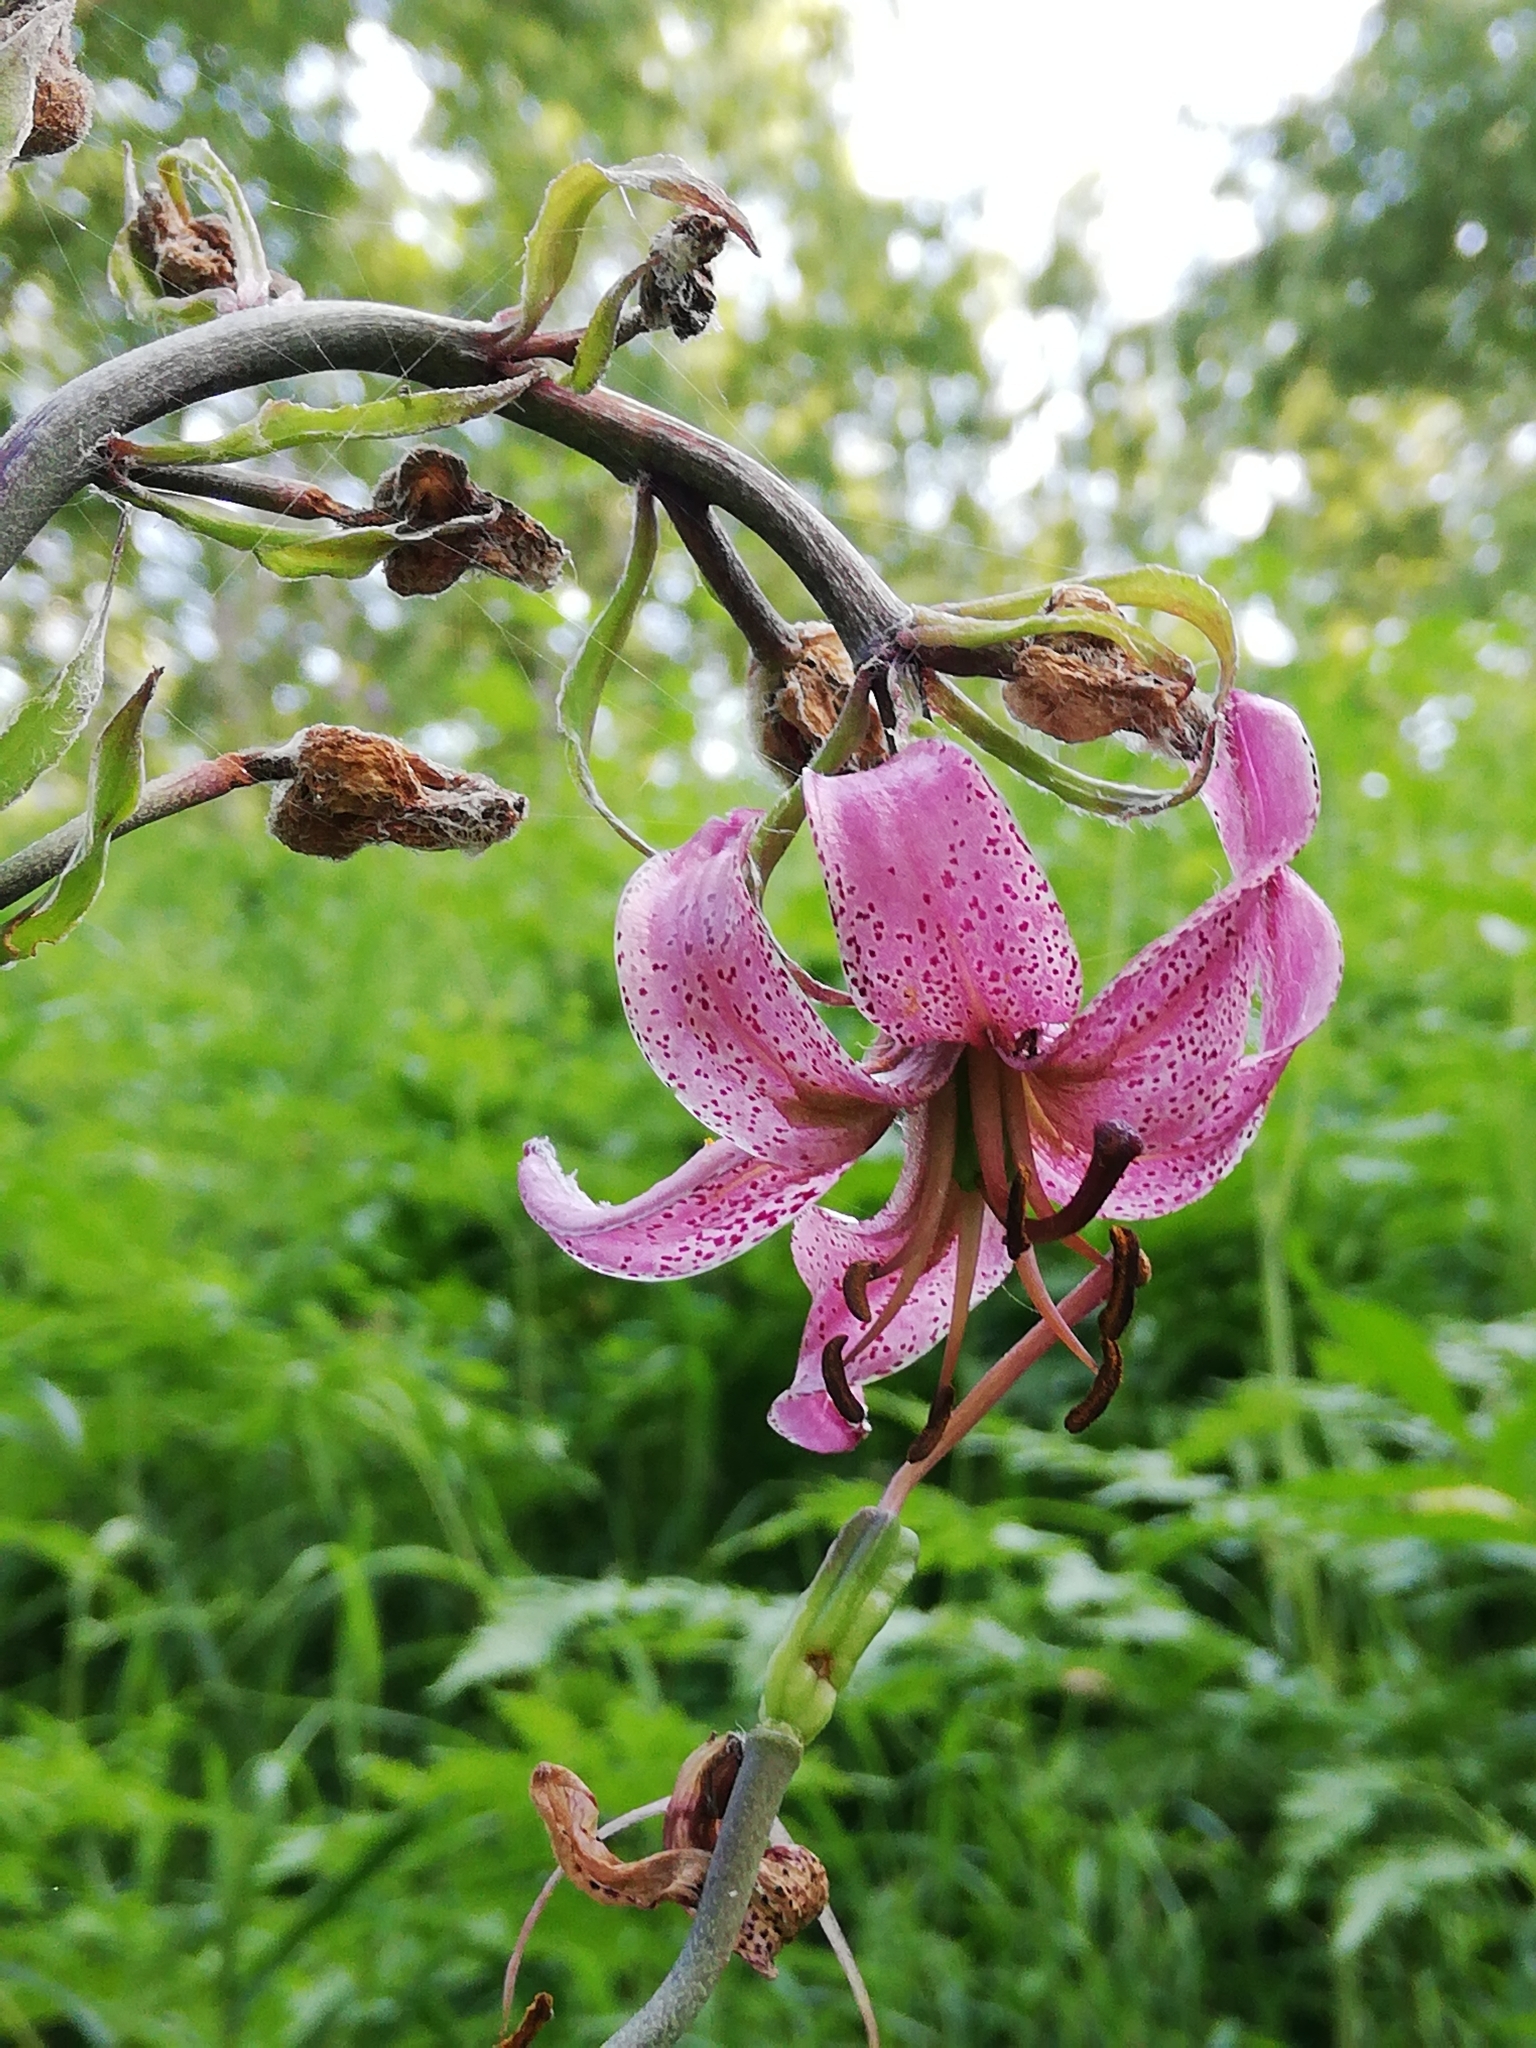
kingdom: Plantae
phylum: Tracheophyta
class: Liliopsida
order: Liliales
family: Liliaceae
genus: Lilium
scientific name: Lilium martagon
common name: Martagon lily
